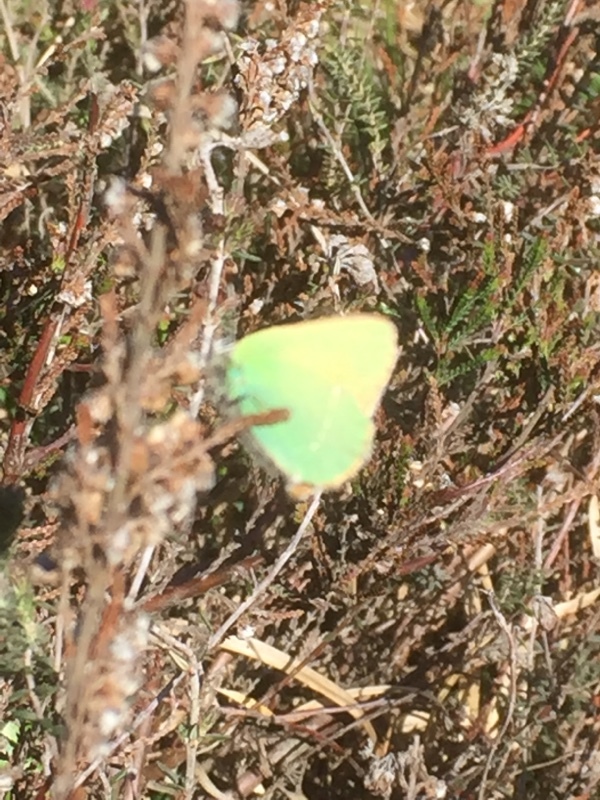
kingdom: Animalia
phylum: Arthropoda
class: Insecta
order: Lepidoptera
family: Lycaenidae
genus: Callophrys
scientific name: Callophrys rubi
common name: Green hairstreak
